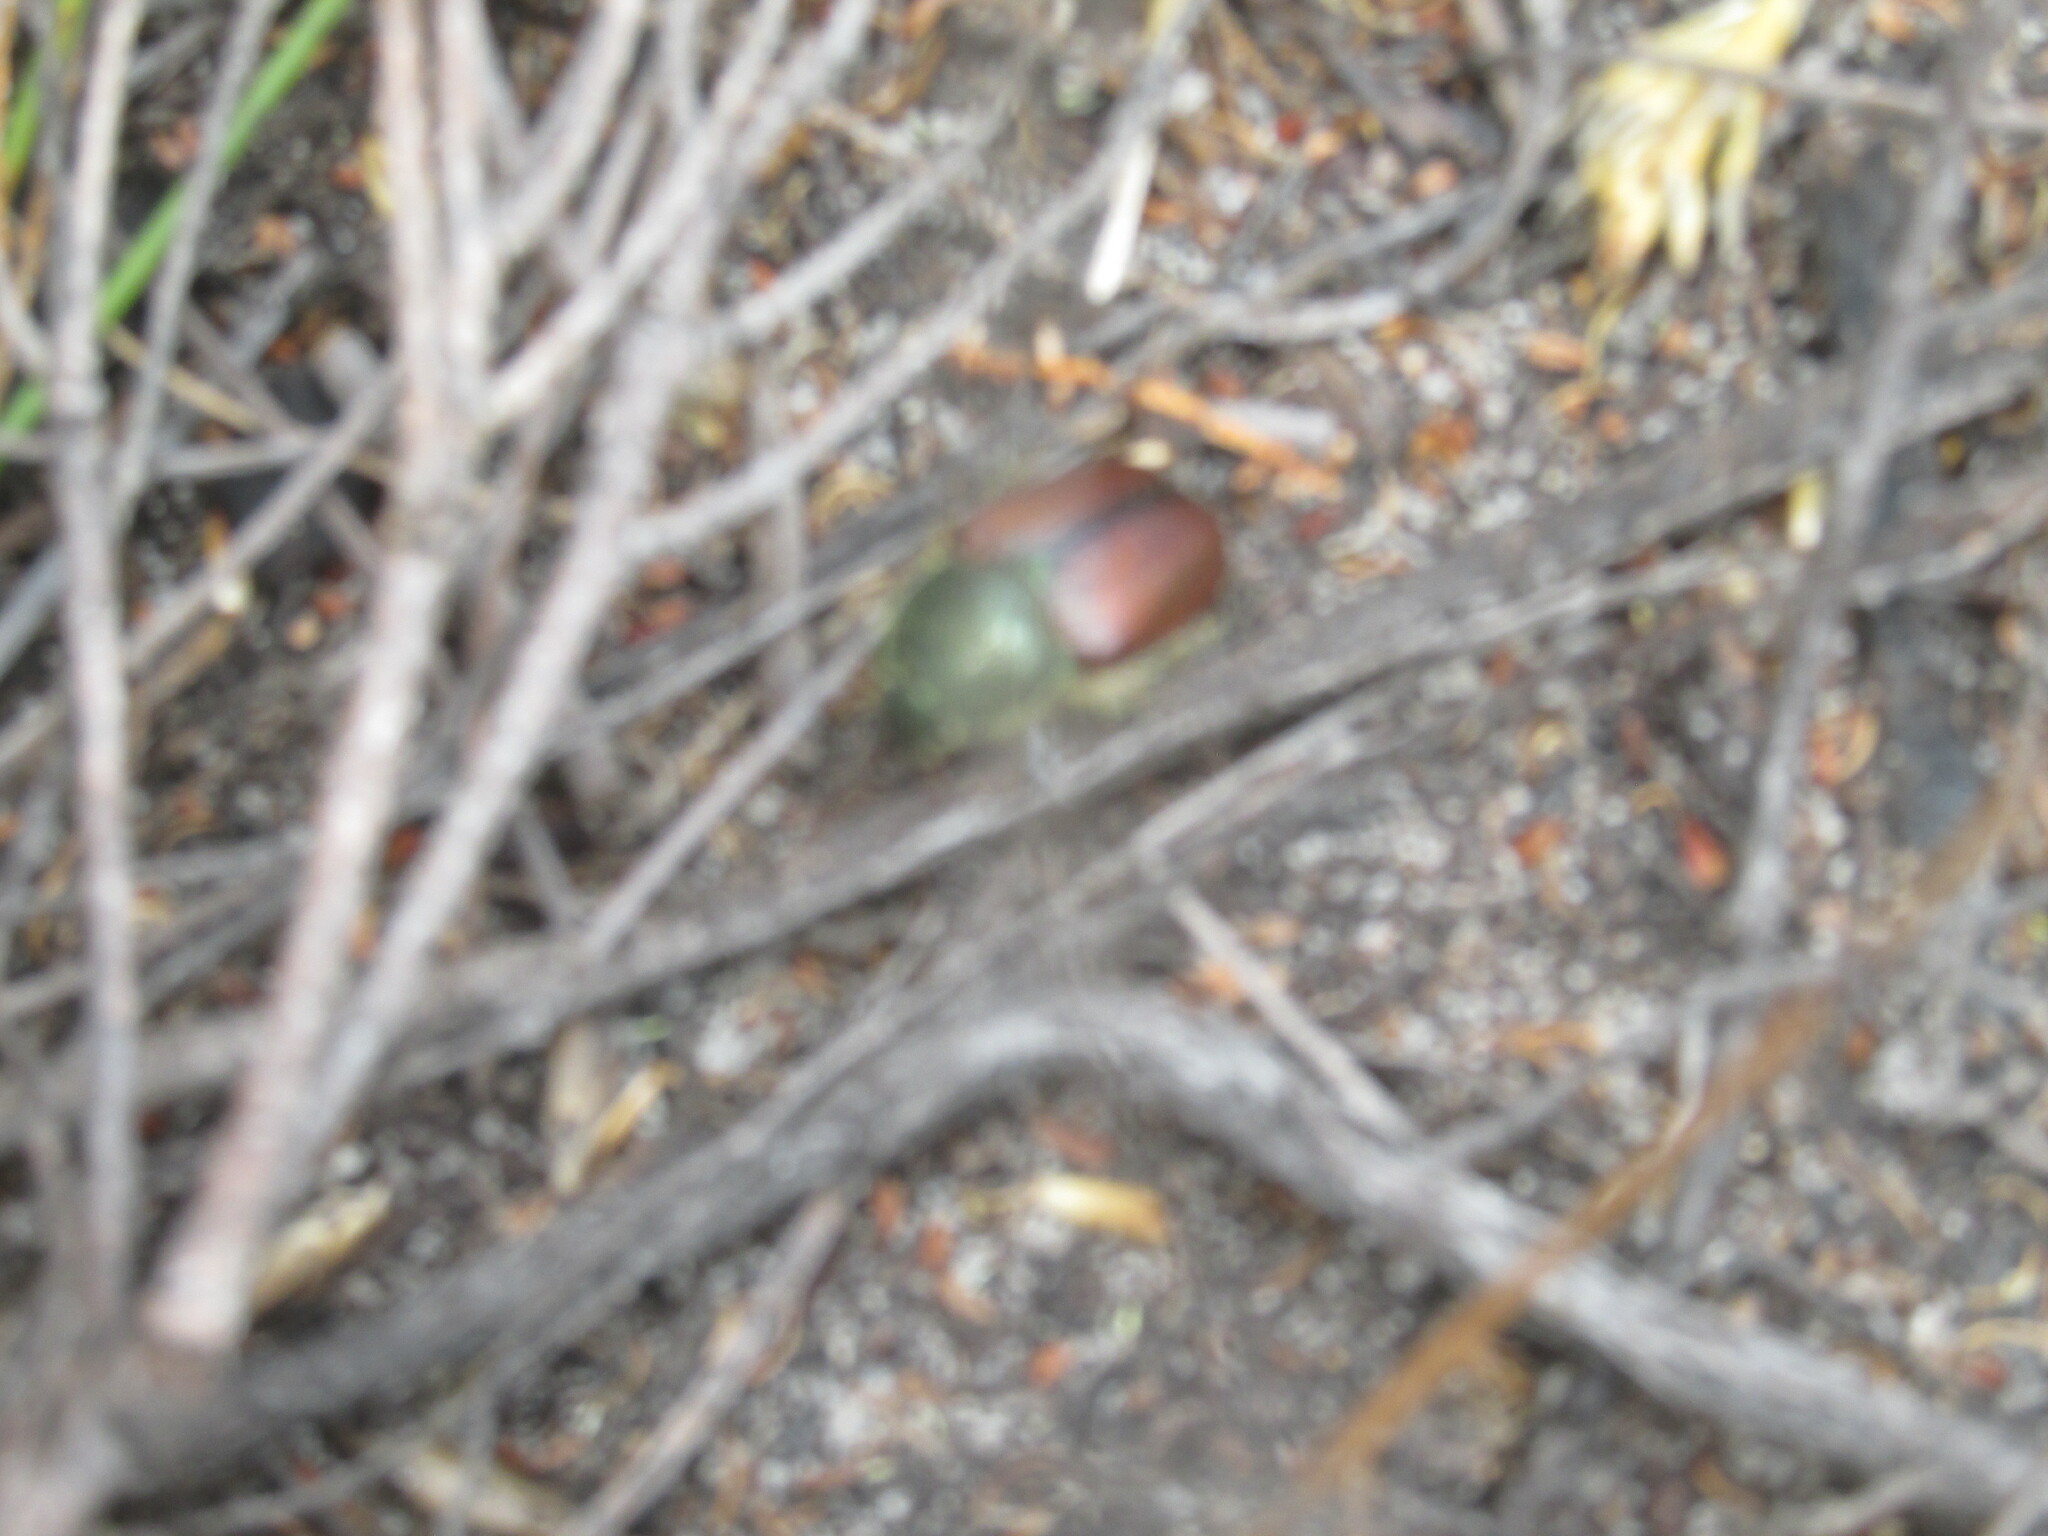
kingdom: Animalia
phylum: Arthropoda
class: Insecta
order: Coleoptera
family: Scarabaeidae
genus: Stegopterus
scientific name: Stegopterus suturalis
